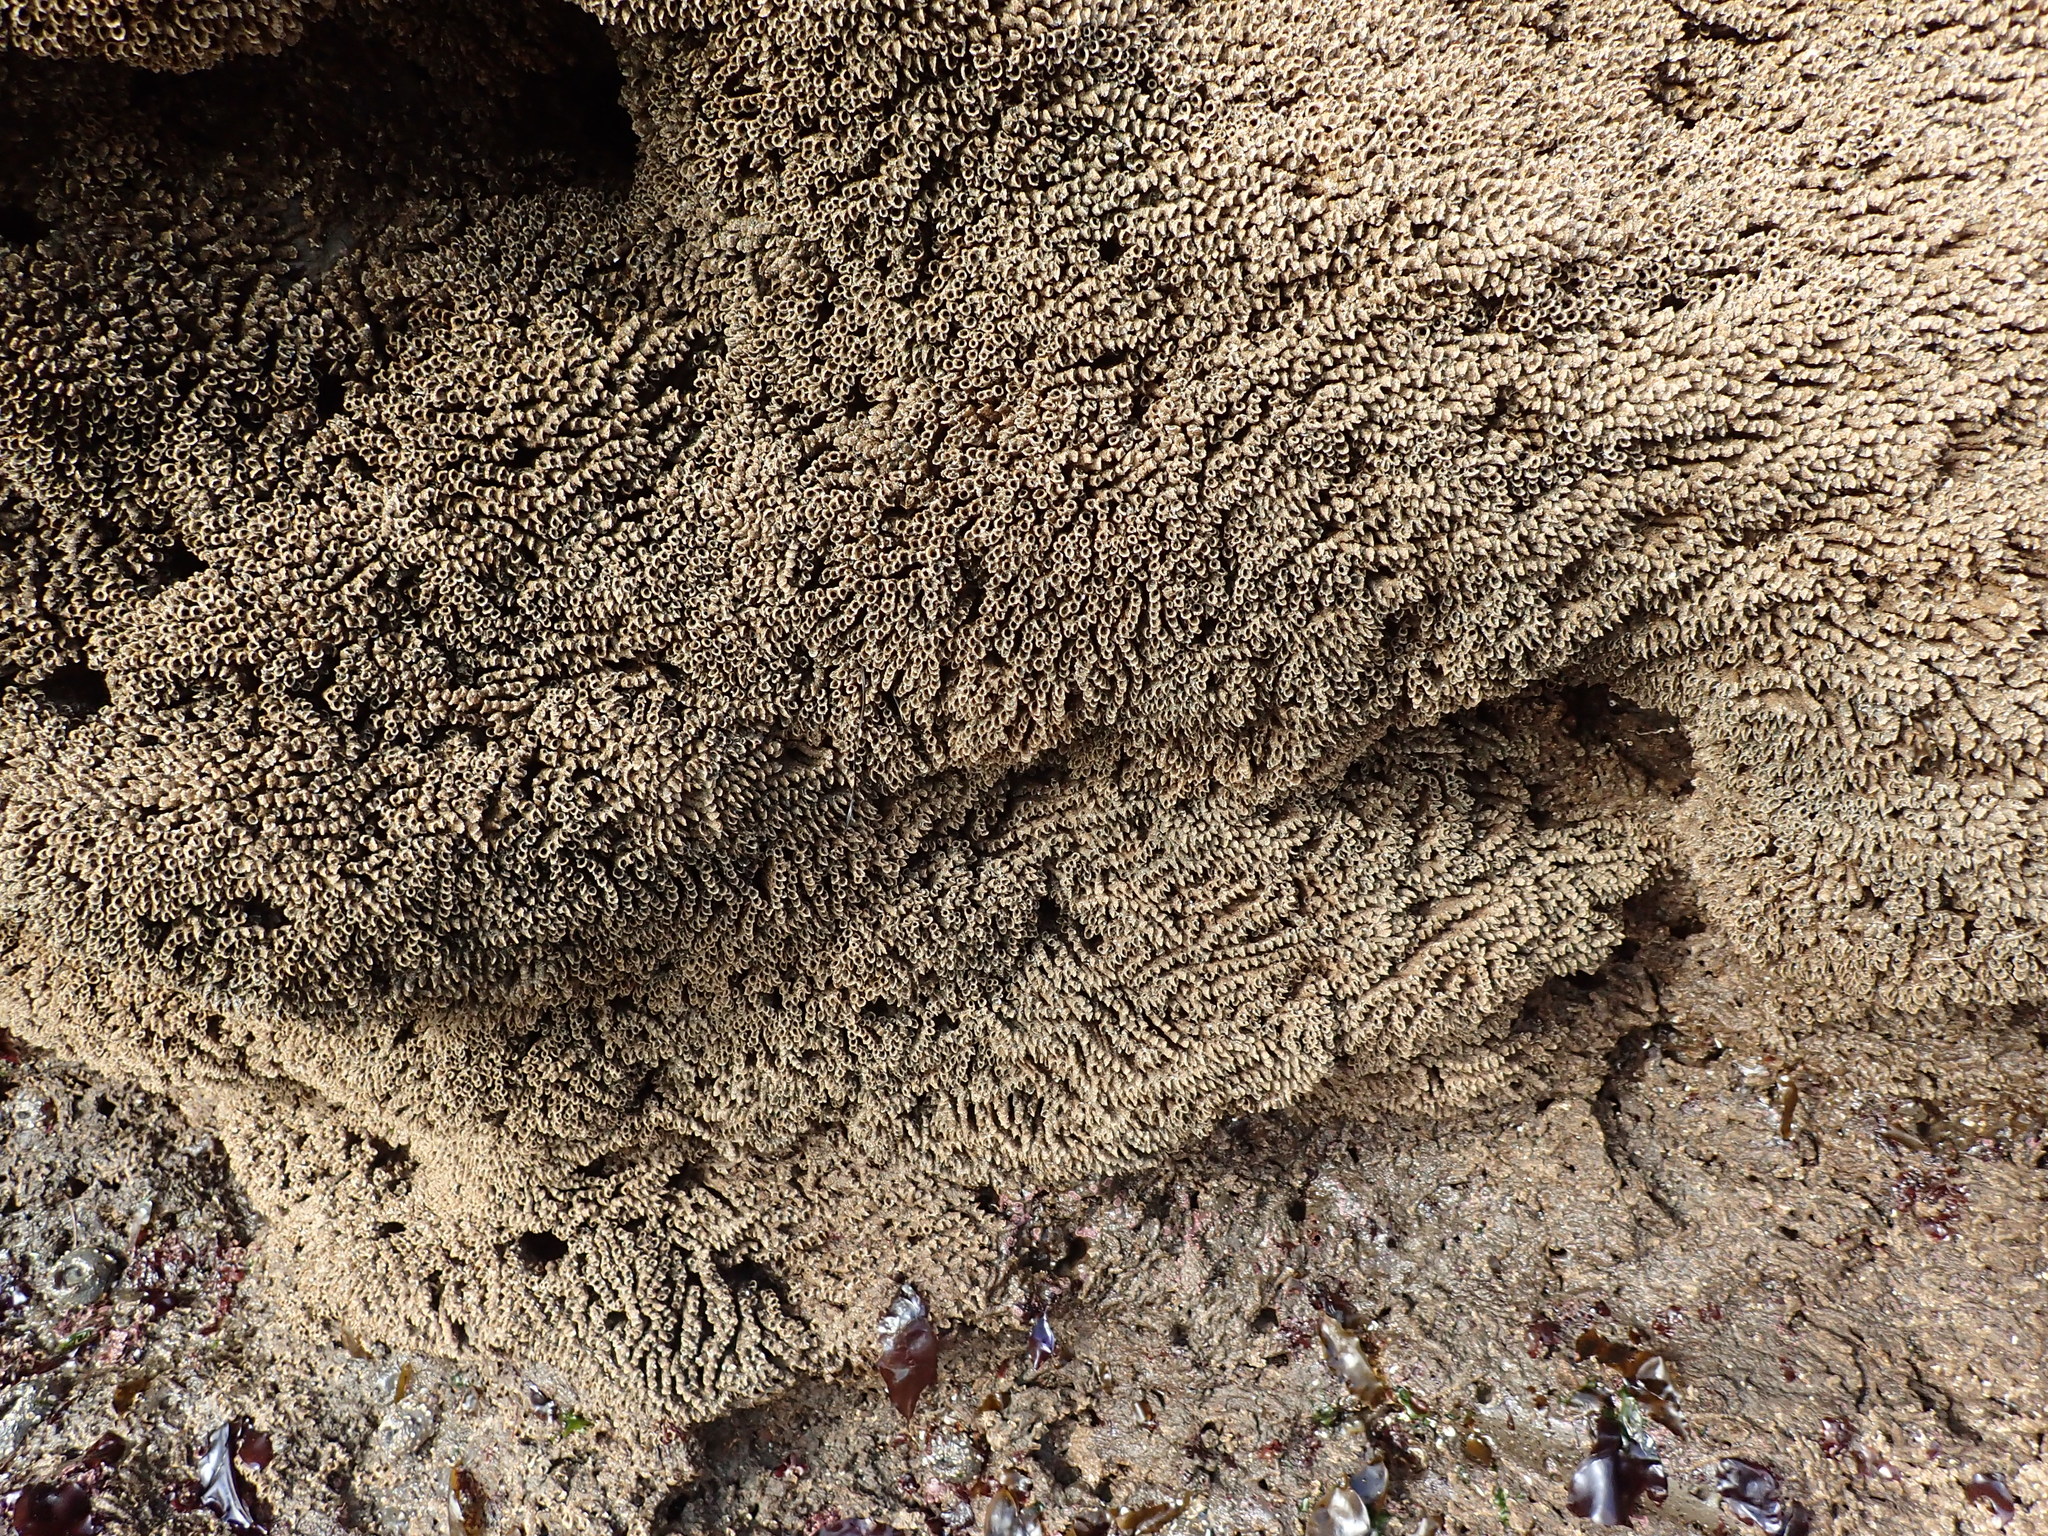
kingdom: Animalia
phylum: Annelida
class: Polychaeta
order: Sabellida
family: Sabellariidae
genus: Phragmatopoma
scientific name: Phragmatopoma californica
